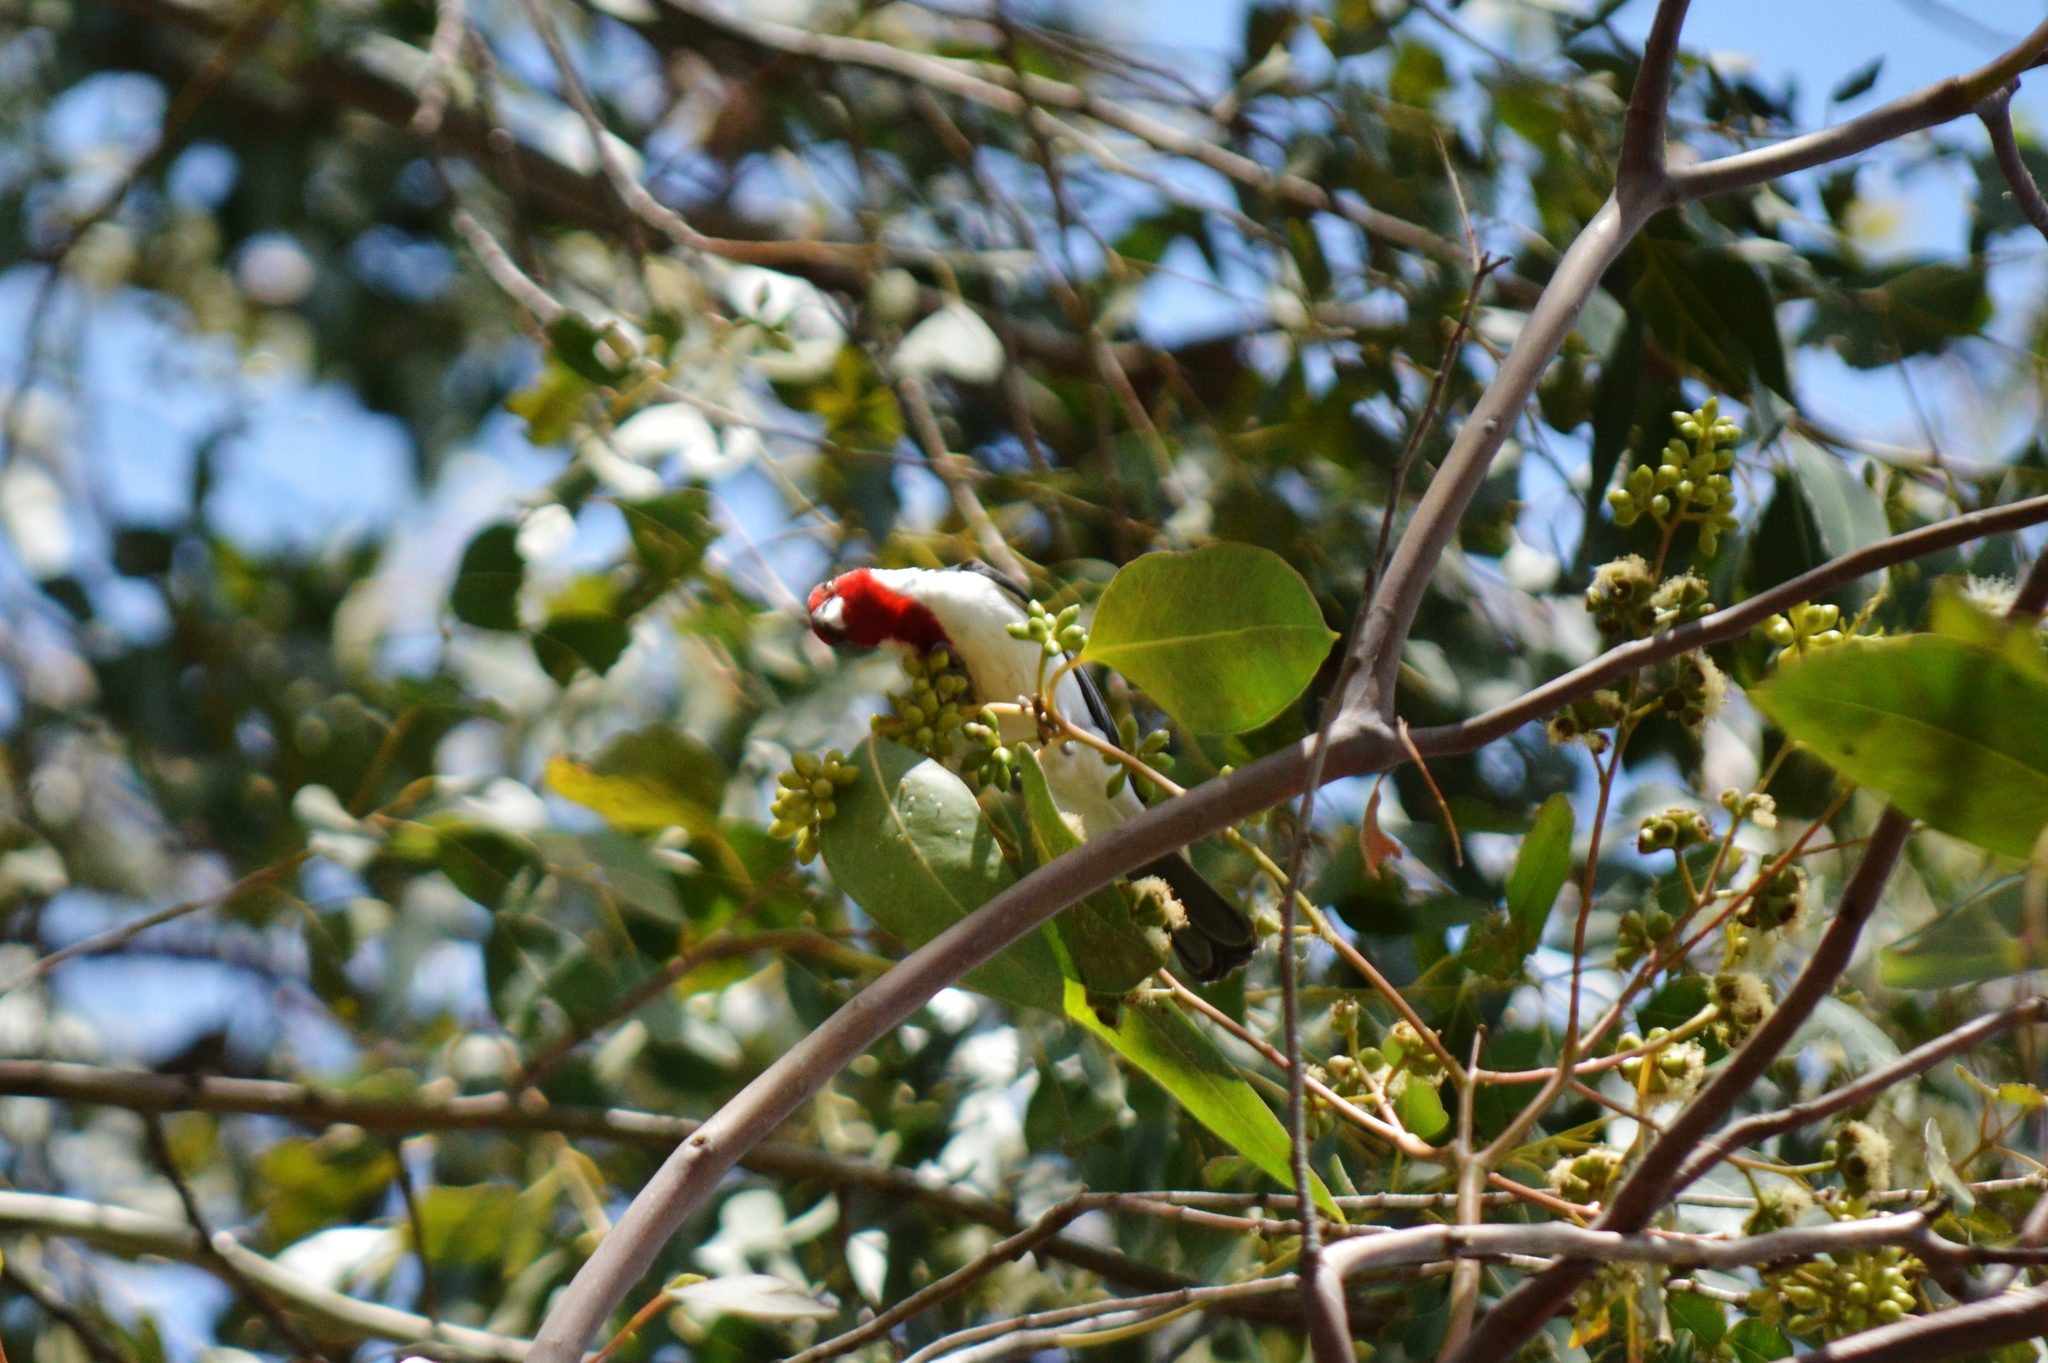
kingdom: Animalia
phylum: Chordata
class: Aves
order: Passeriformes
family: Thraupidae
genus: Paroaria
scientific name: Paroaria dominicana
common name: Red-cowled cardinal
